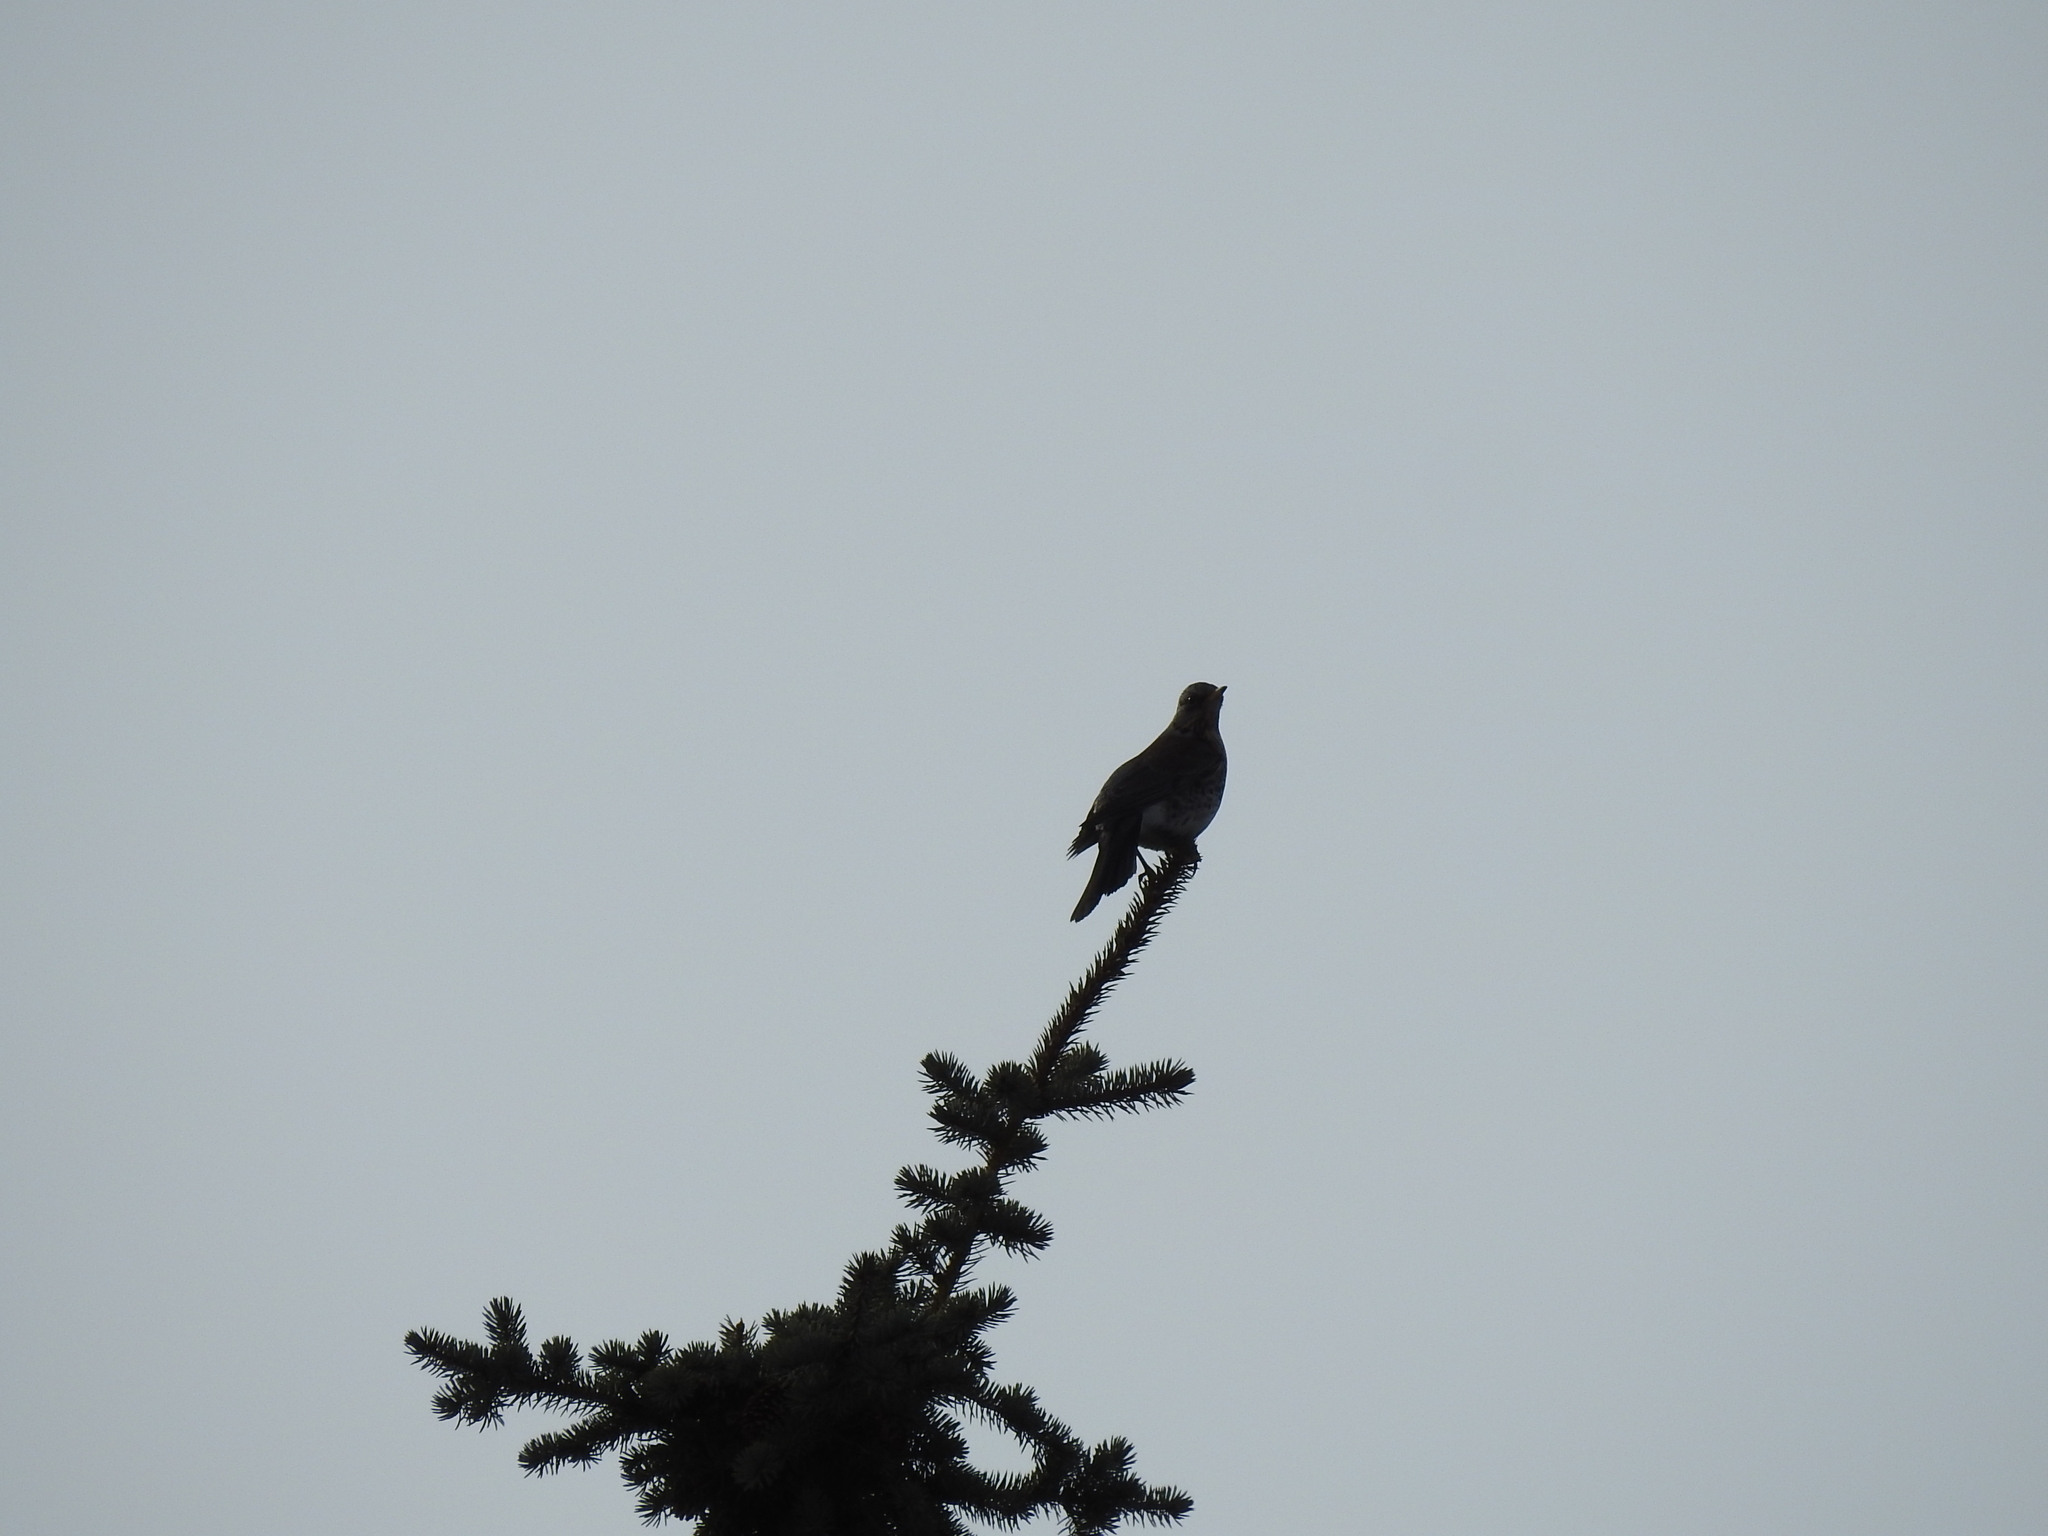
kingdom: Animalia
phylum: Chordata
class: Aves
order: Passeriformes
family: Turdidae
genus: Turdus
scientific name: Turdus pilaris
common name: Fieldfare
